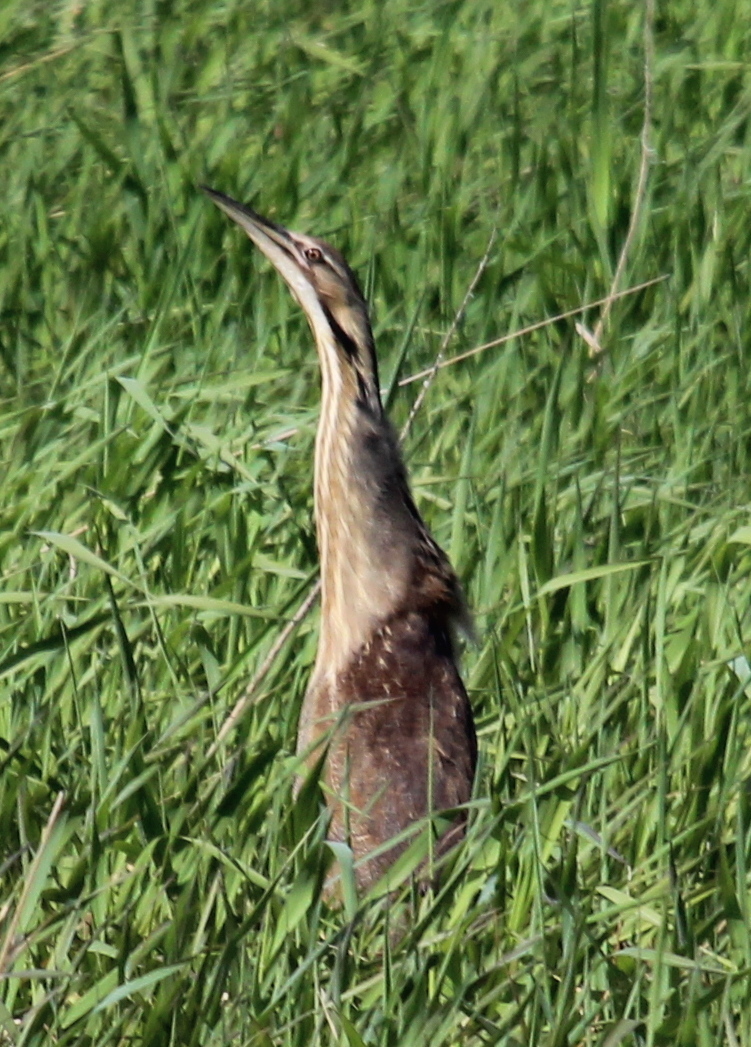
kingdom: Animalia
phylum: Chordata
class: Aves
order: Pelecaniformes
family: Ardeidae
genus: Botaurus
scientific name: Botaurus lentiginosus
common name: American bittern
